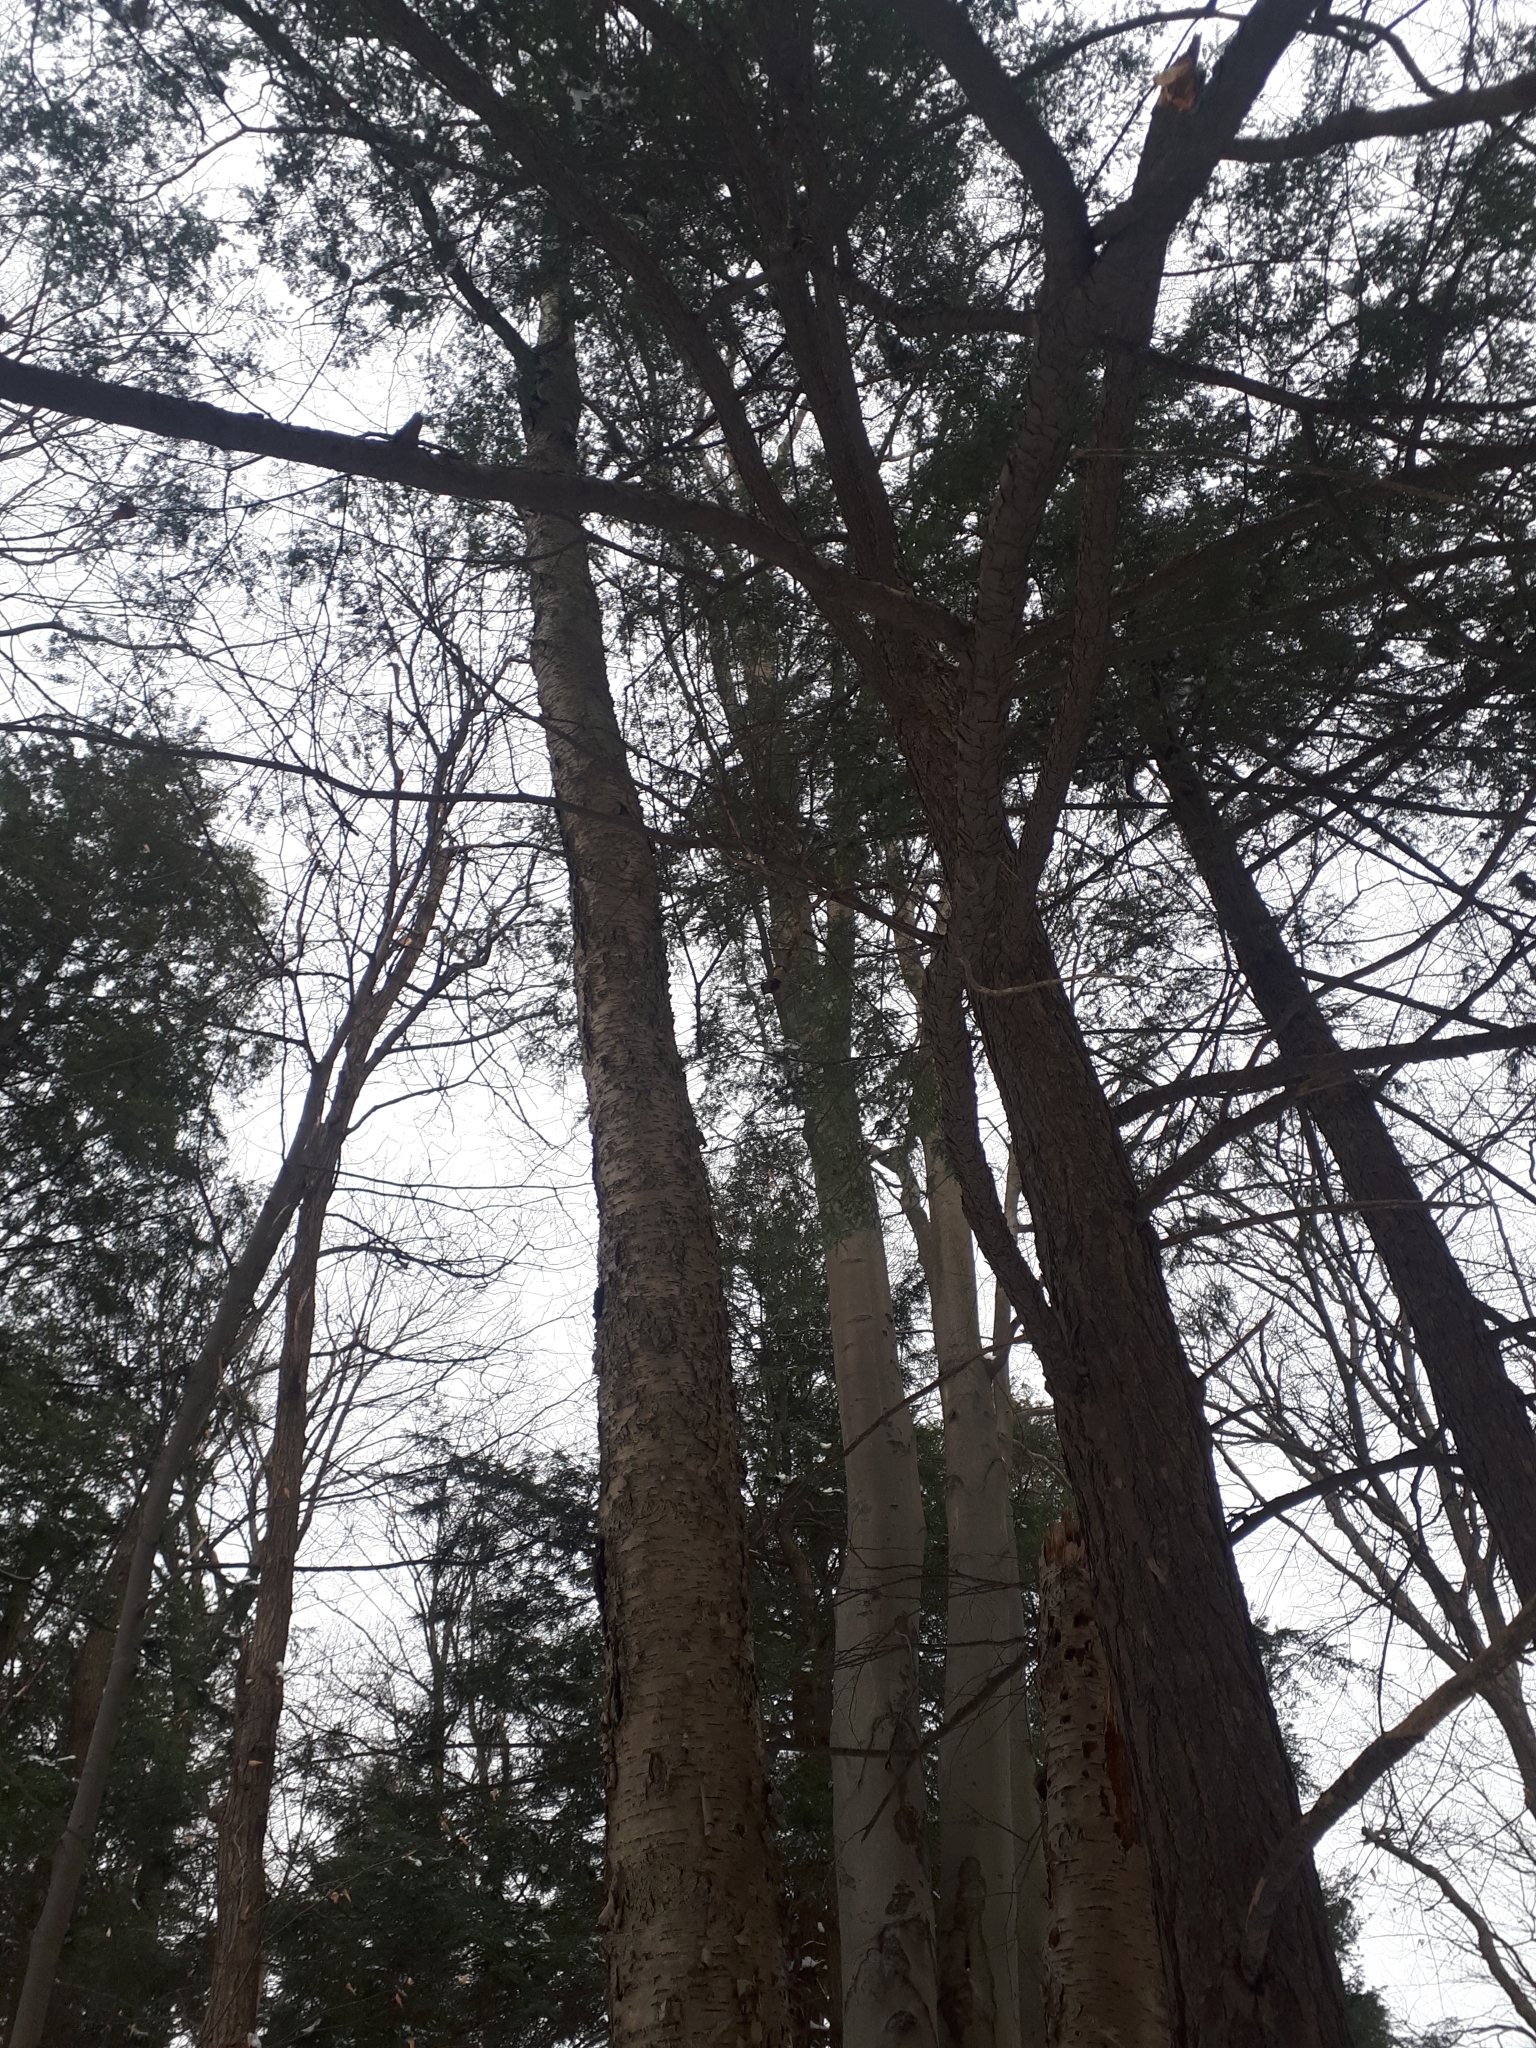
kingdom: Plantae
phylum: Tracheophyta
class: Magnoliopsida
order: Fagales
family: Betulaceae
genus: Betula
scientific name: Betula alleghaniensis
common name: Yellow birch
